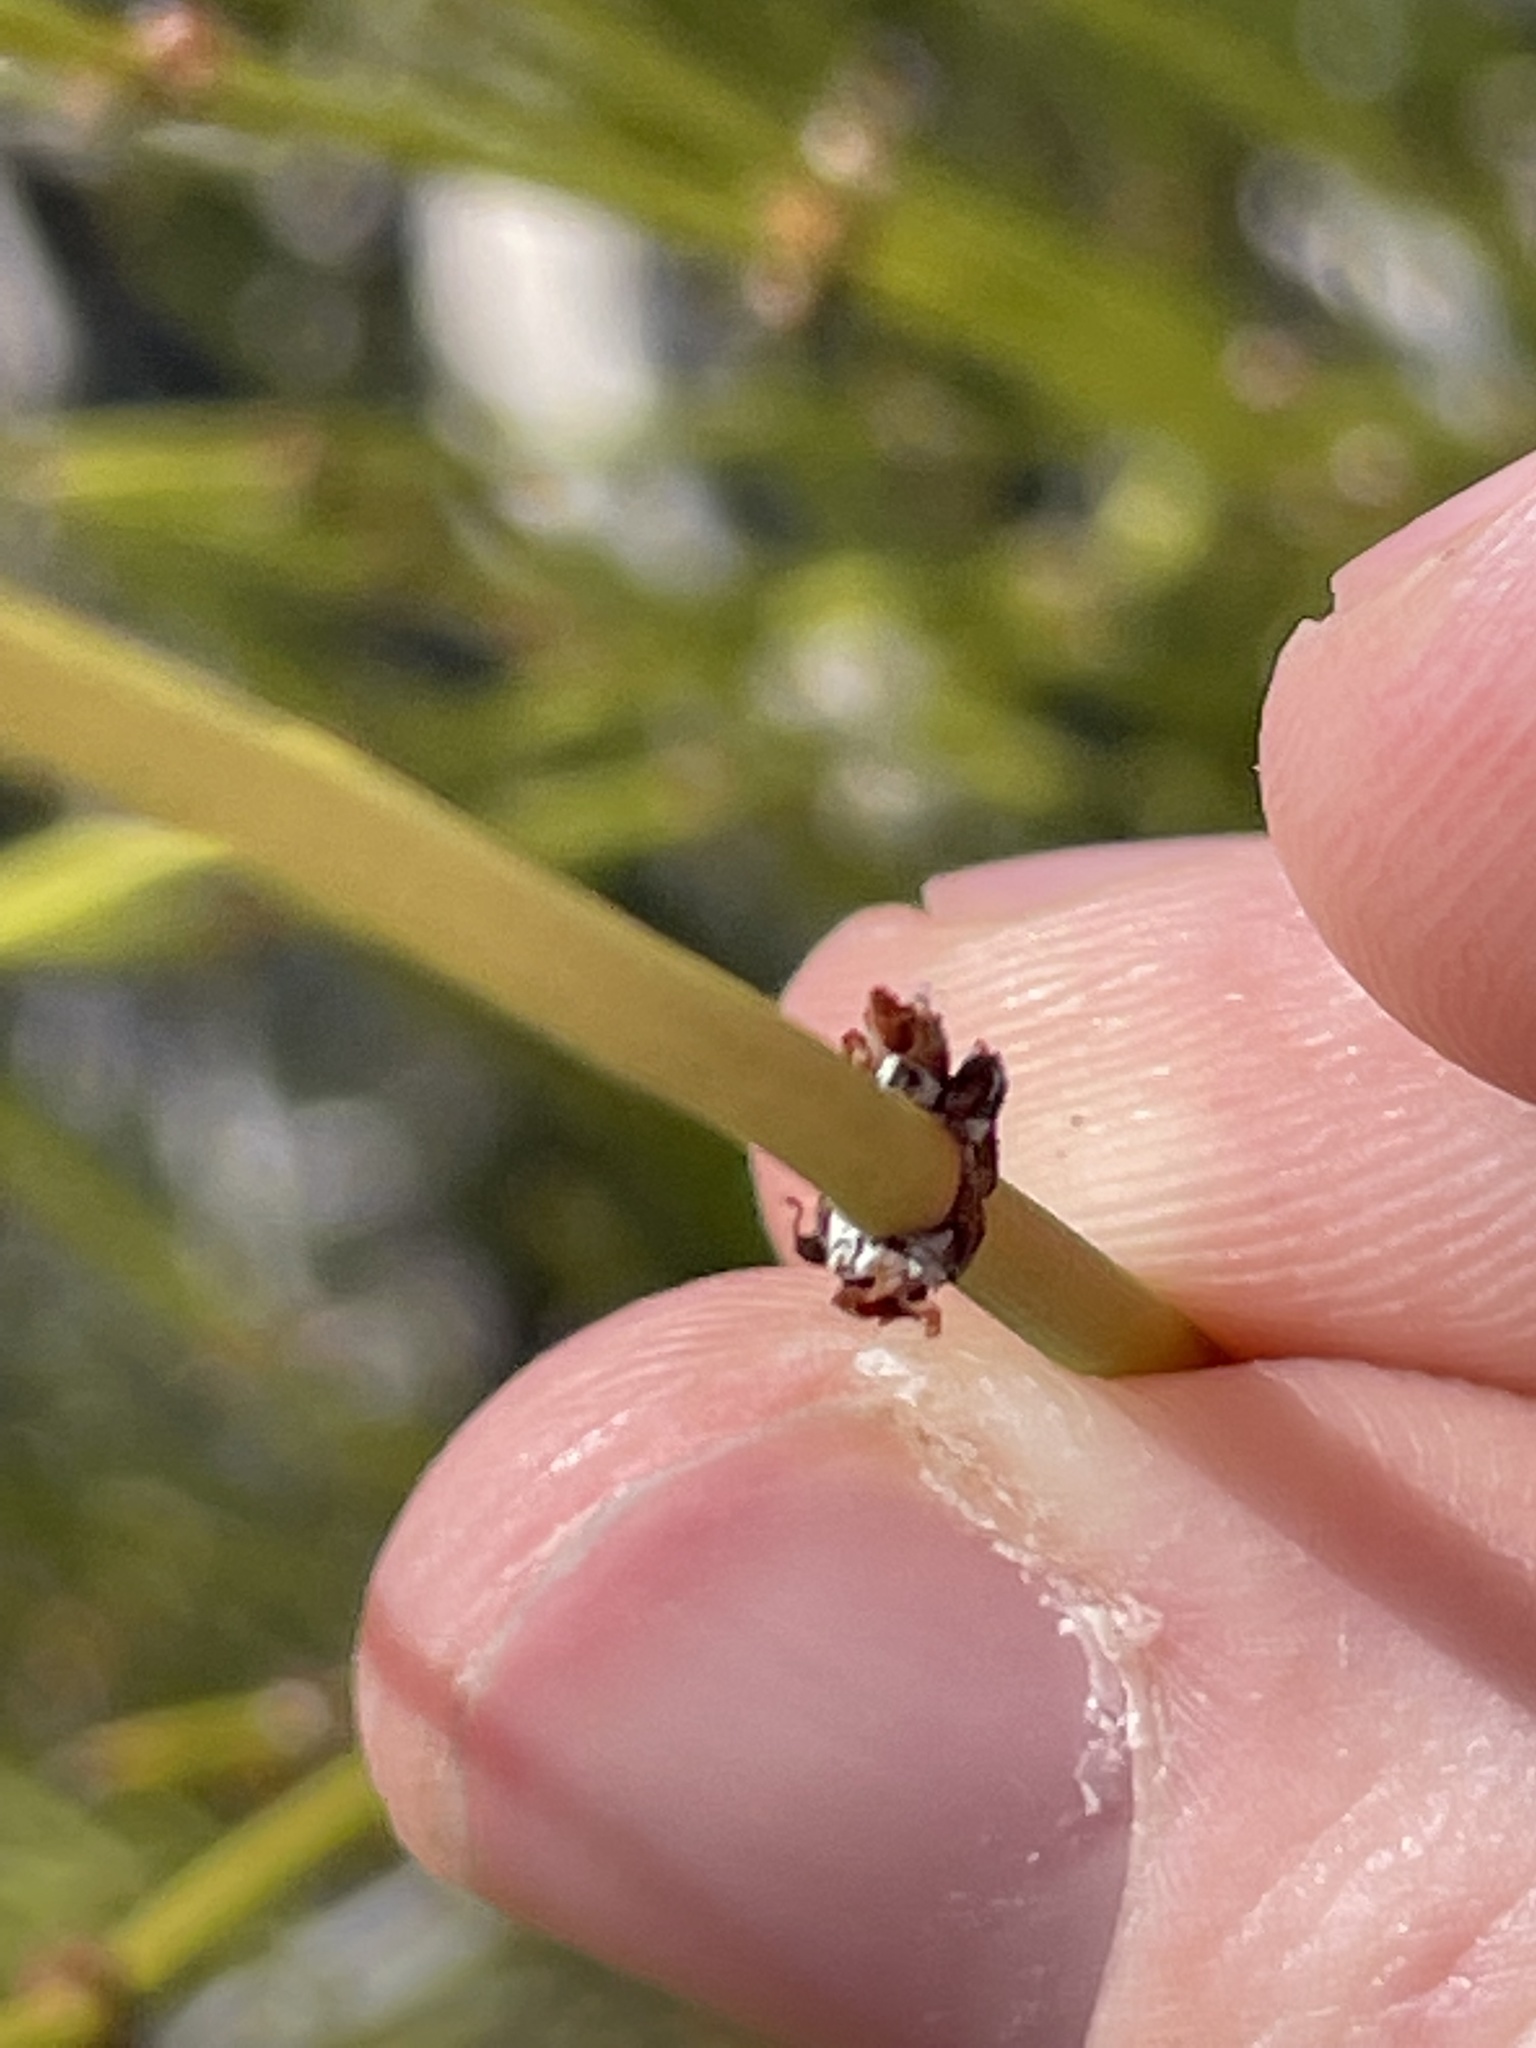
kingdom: Plantae
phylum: Tracheophyta
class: Gnetopsida
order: Ephedrales
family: Ephedraceae
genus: Ephedra
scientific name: Ephedra viridis
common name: Green ephedra
